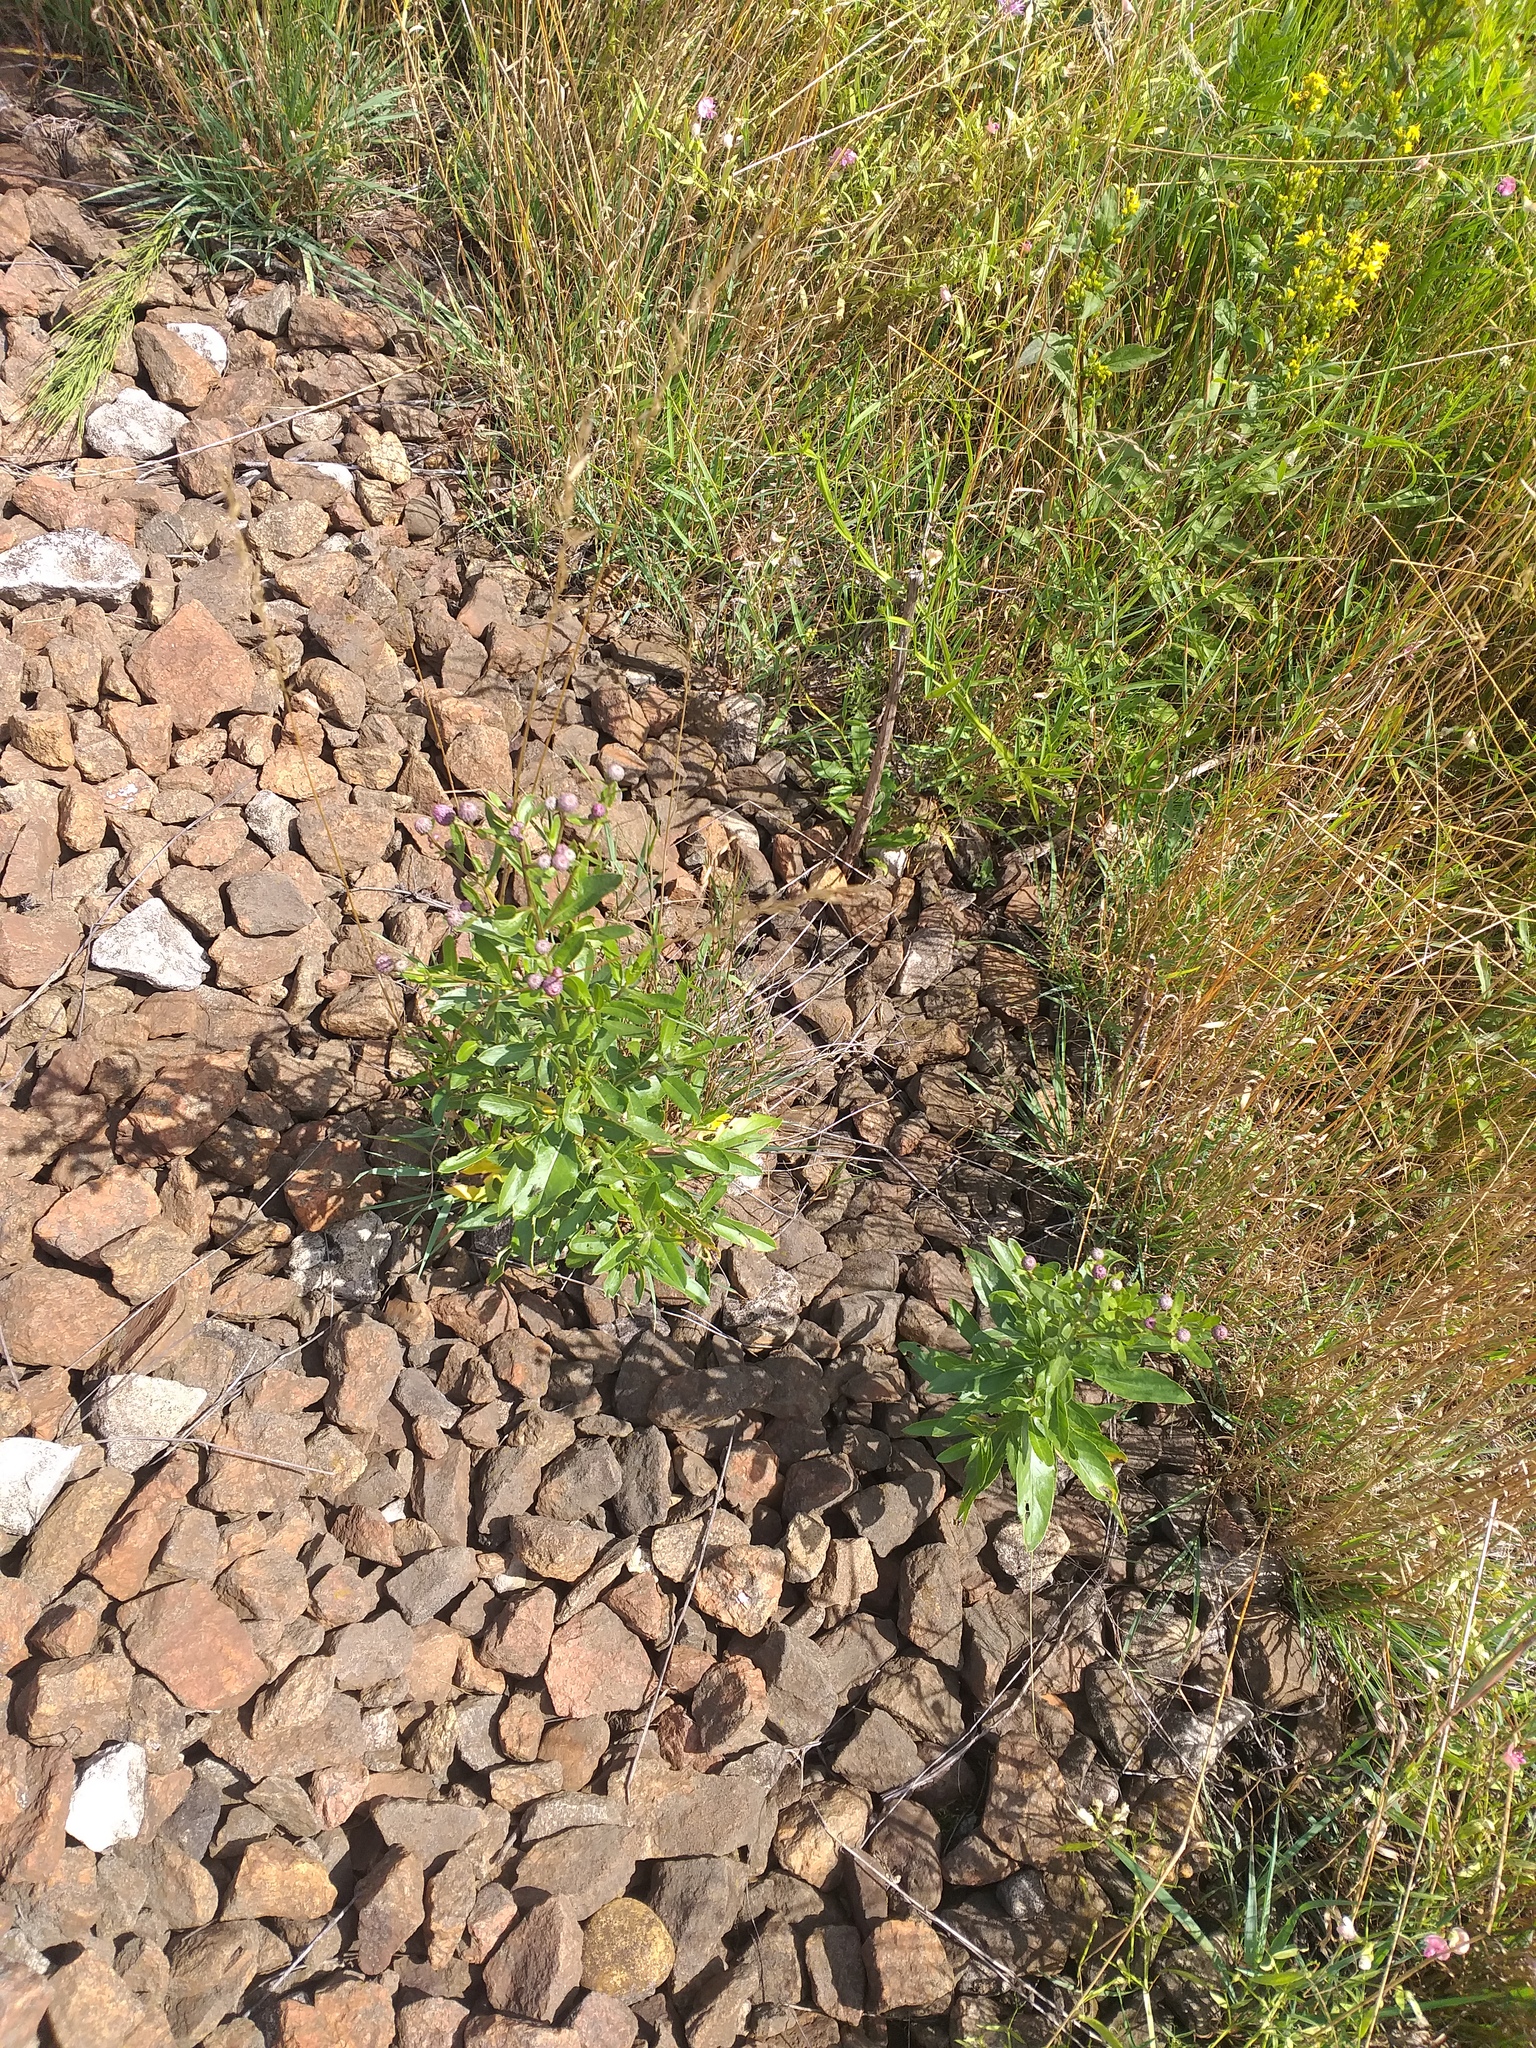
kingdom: Plantae
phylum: Tracheophyta
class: Magnoliopsida
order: Asterales
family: Asteraceae
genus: Cirsium
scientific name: Cirsium arvense
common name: Creeping thistle
